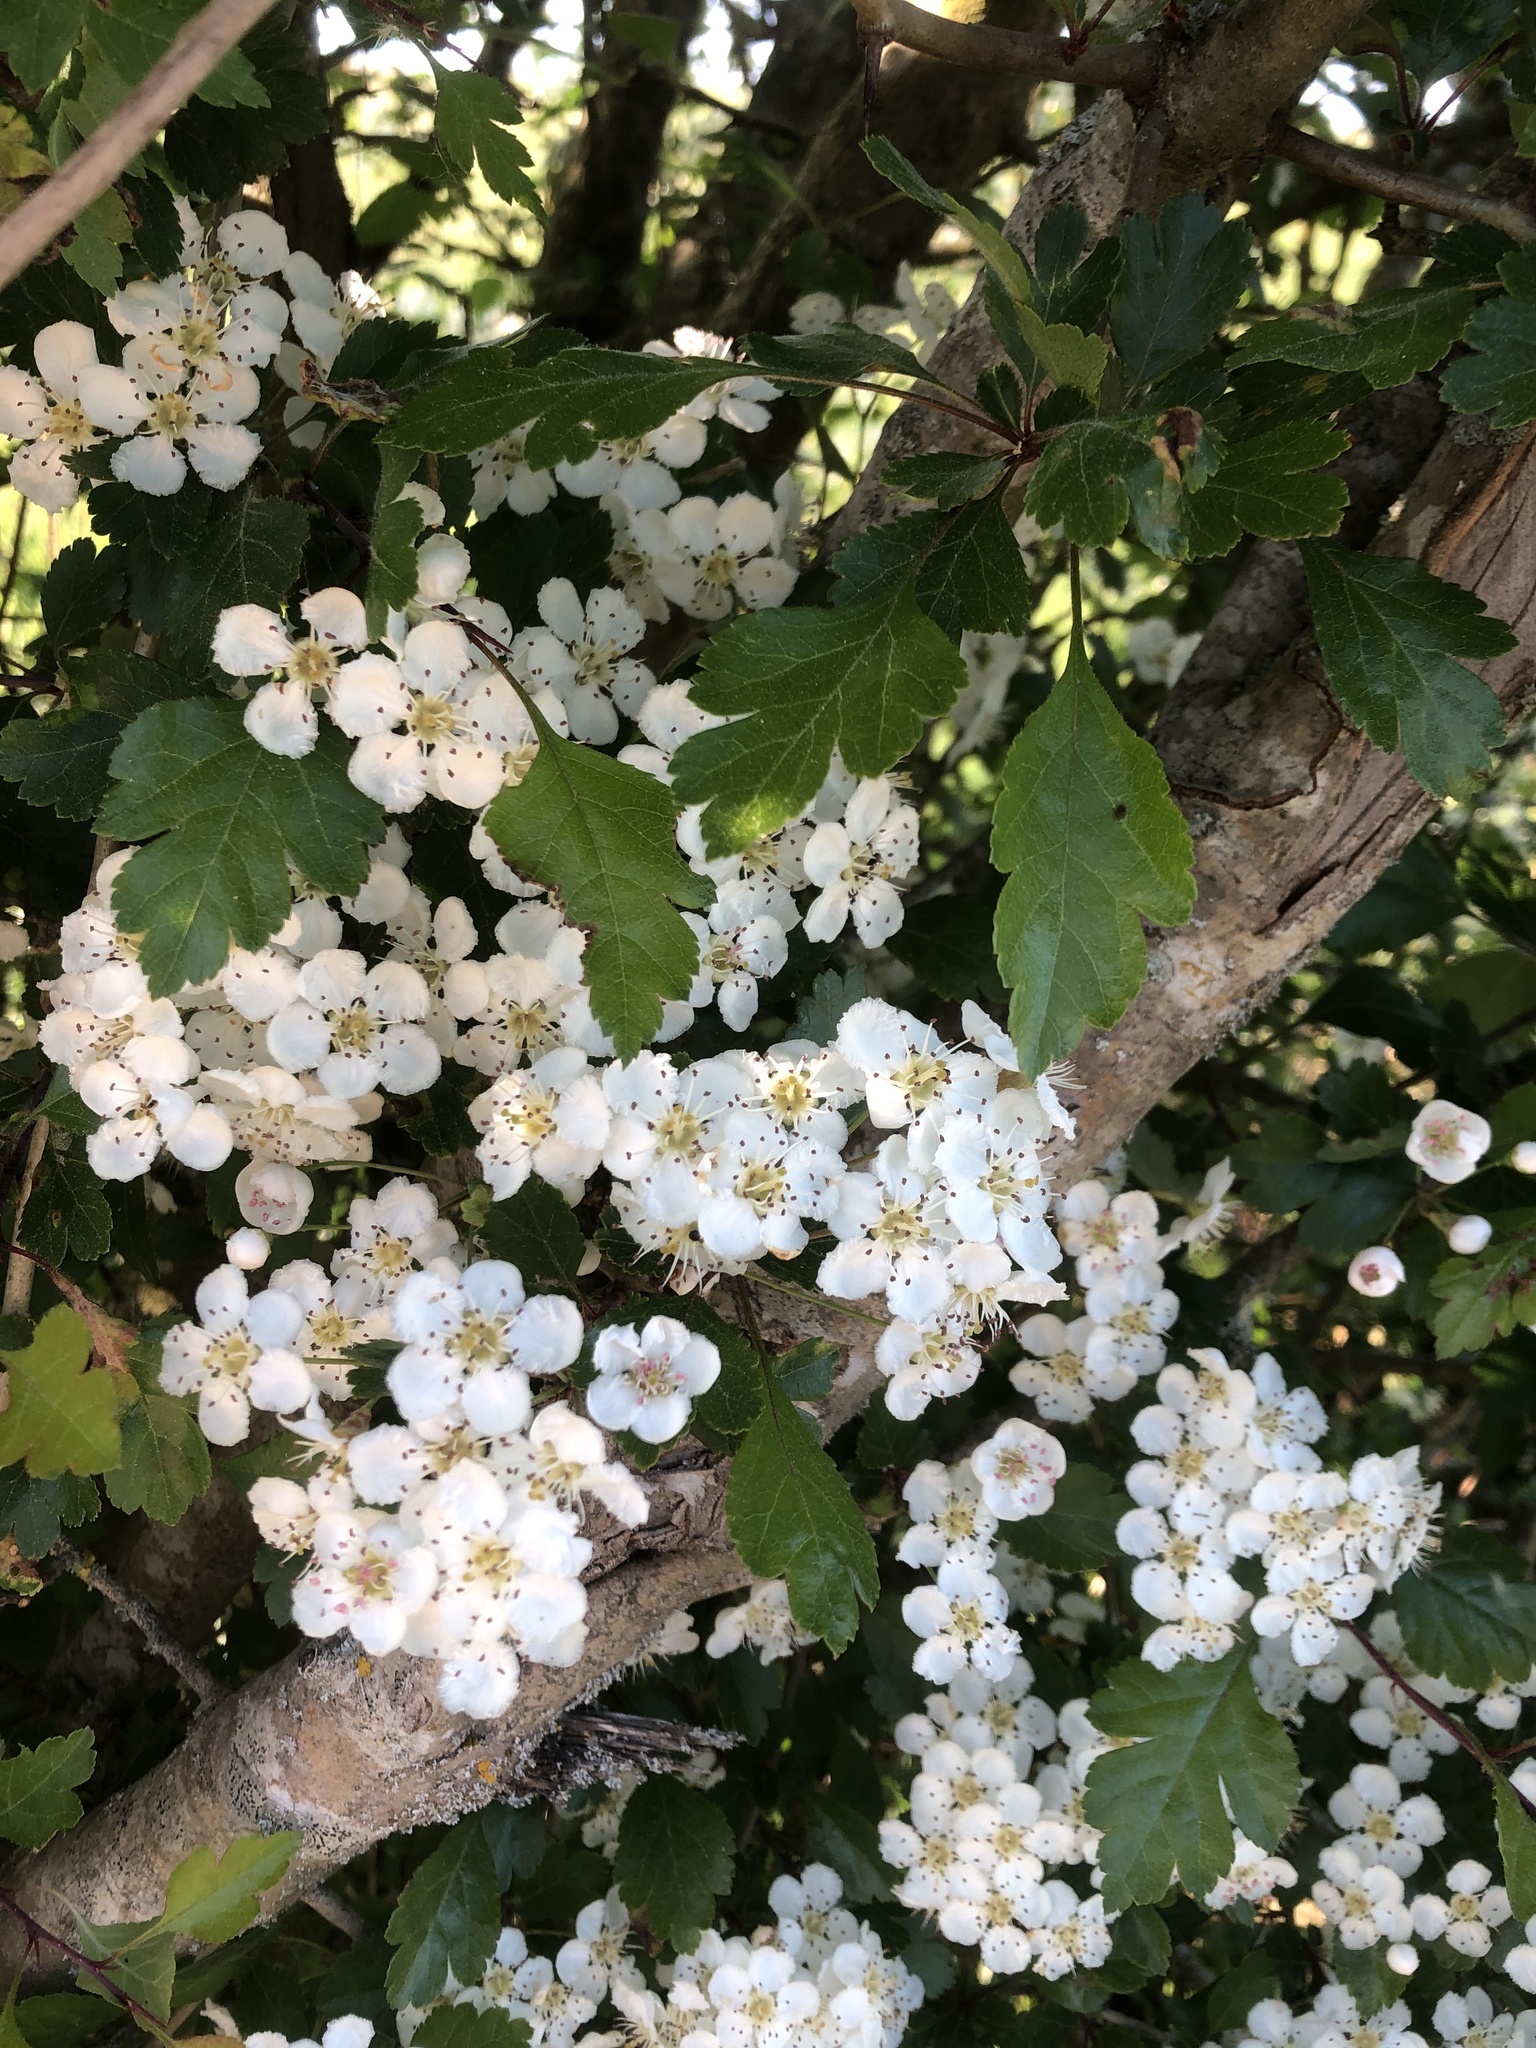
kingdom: Plantae
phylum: Tracheophyta
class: Magnoliopsida
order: Rosales
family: Rosaceae
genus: Crataegus
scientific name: Crataegus monogyna
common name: Hawthorn
